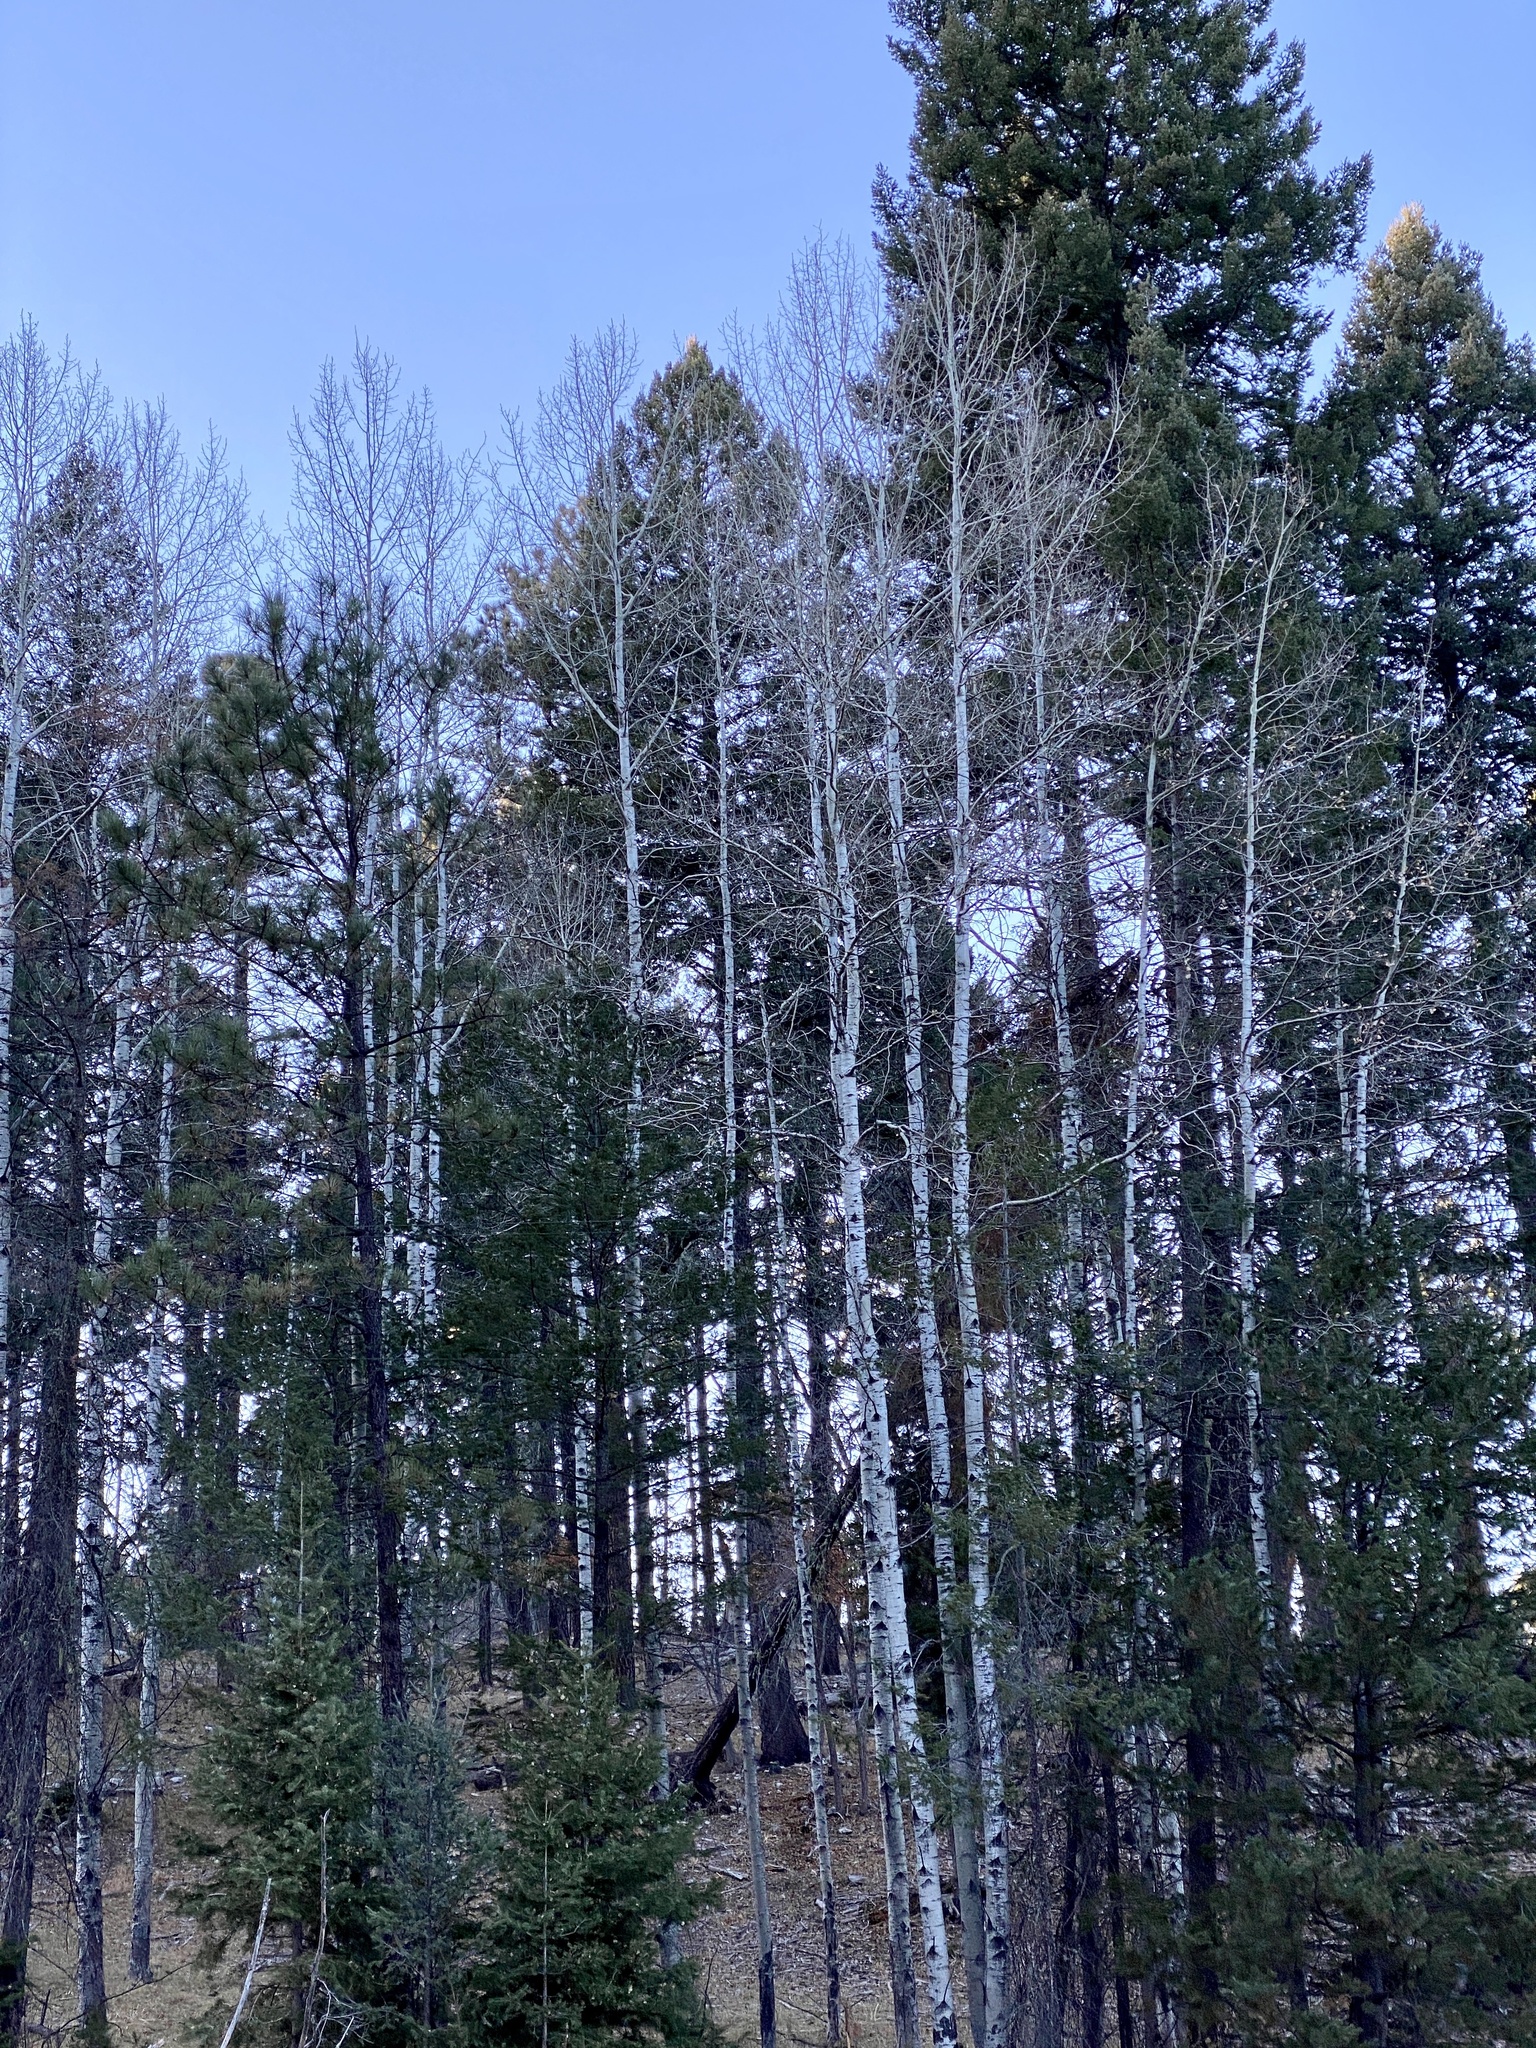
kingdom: Plantae
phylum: Tracheophyta
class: Magnoliopsida
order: Malpighiales
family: Salicaceae
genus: Populus
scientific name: Populus tremuloides
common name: Quaking aspen
